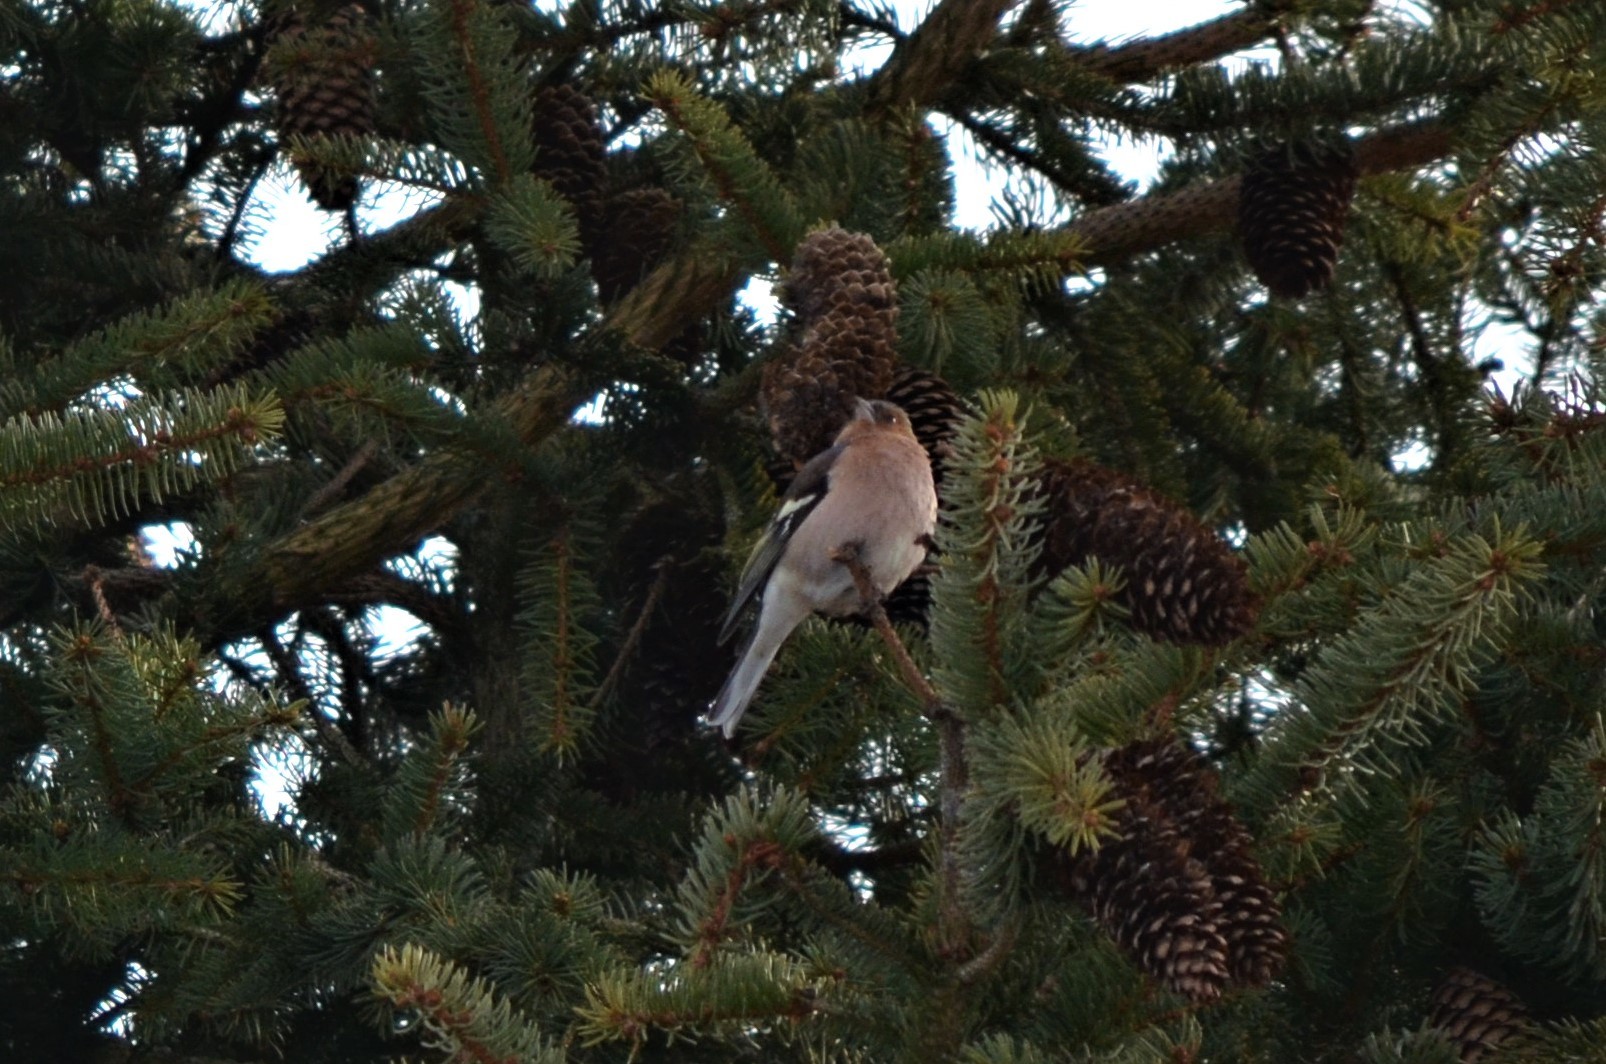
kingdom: Animalia
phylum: Chordata
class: Aves
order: Passeriformes
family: Fringillidae
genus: Fringilla
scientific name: Fringilla coelebs
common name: Common chaffinch
